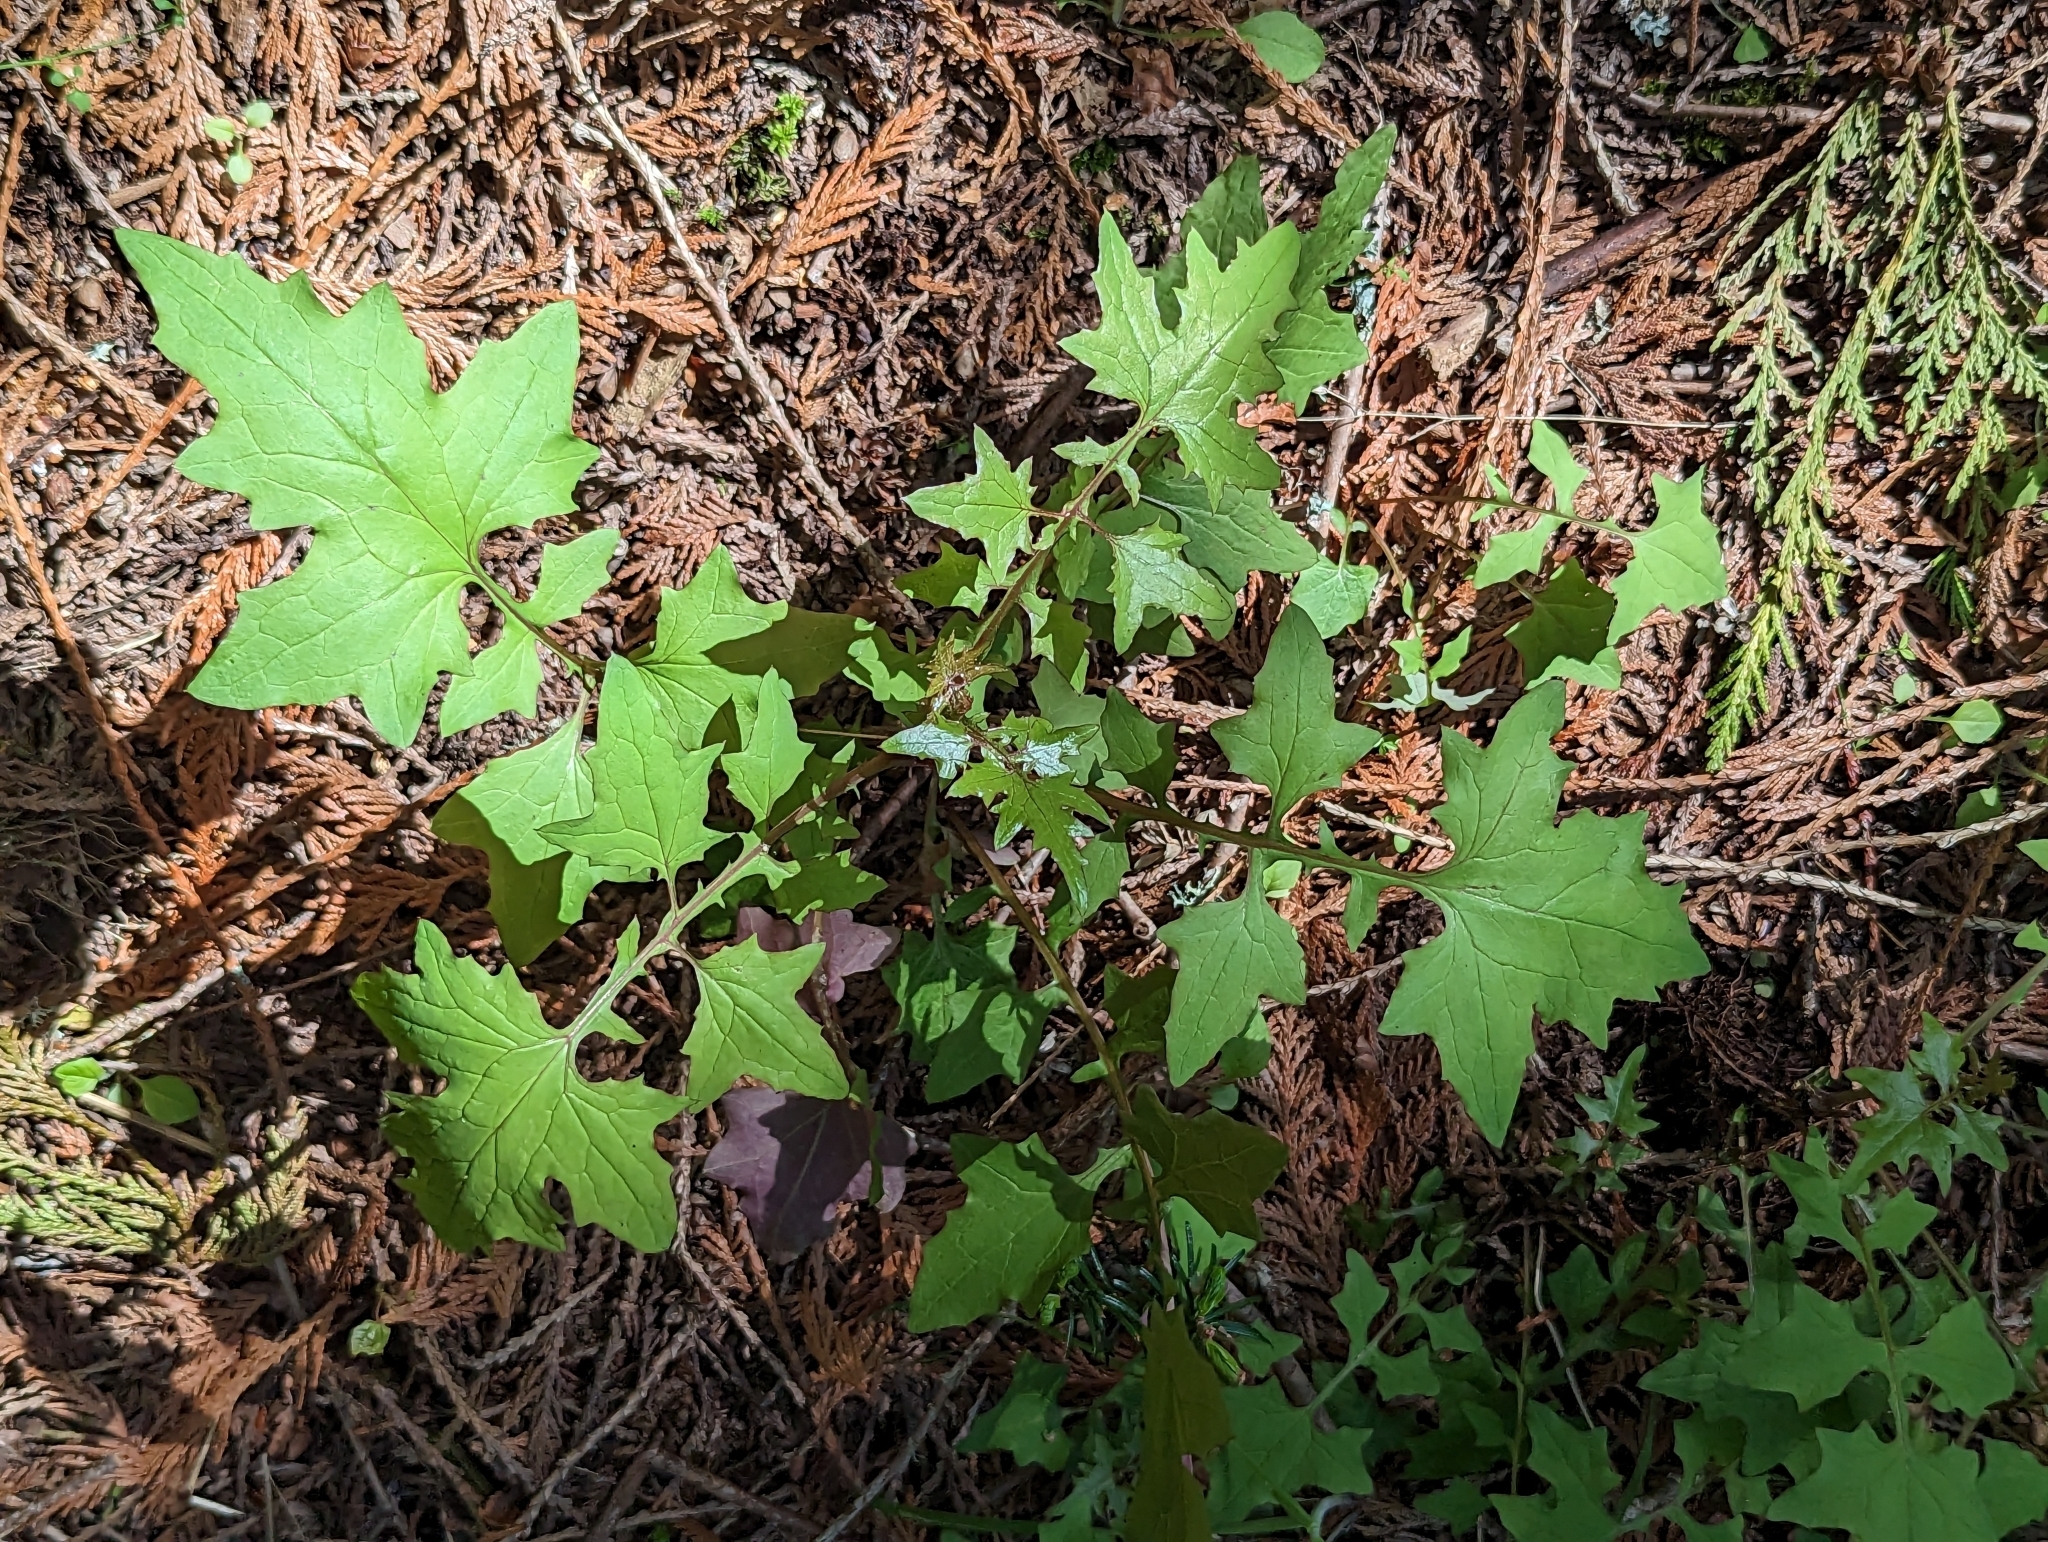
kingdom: Plantae
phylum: Tracheophyta
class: Magnoliopsida
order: Asterales
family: Asteraceae
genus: Mycelis
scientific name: Mycelis muralis
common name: Wall lettuce
